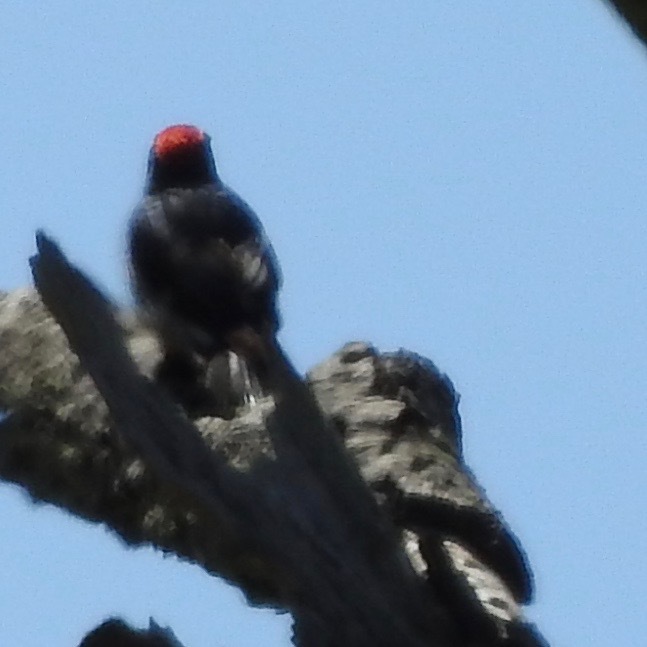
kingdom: Animalia
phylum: Chordata
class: Aves
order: Piciformes
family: Picidae
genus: Melanerpes
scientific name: Melanerpes formicivorus
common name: Acorn woodpecker
